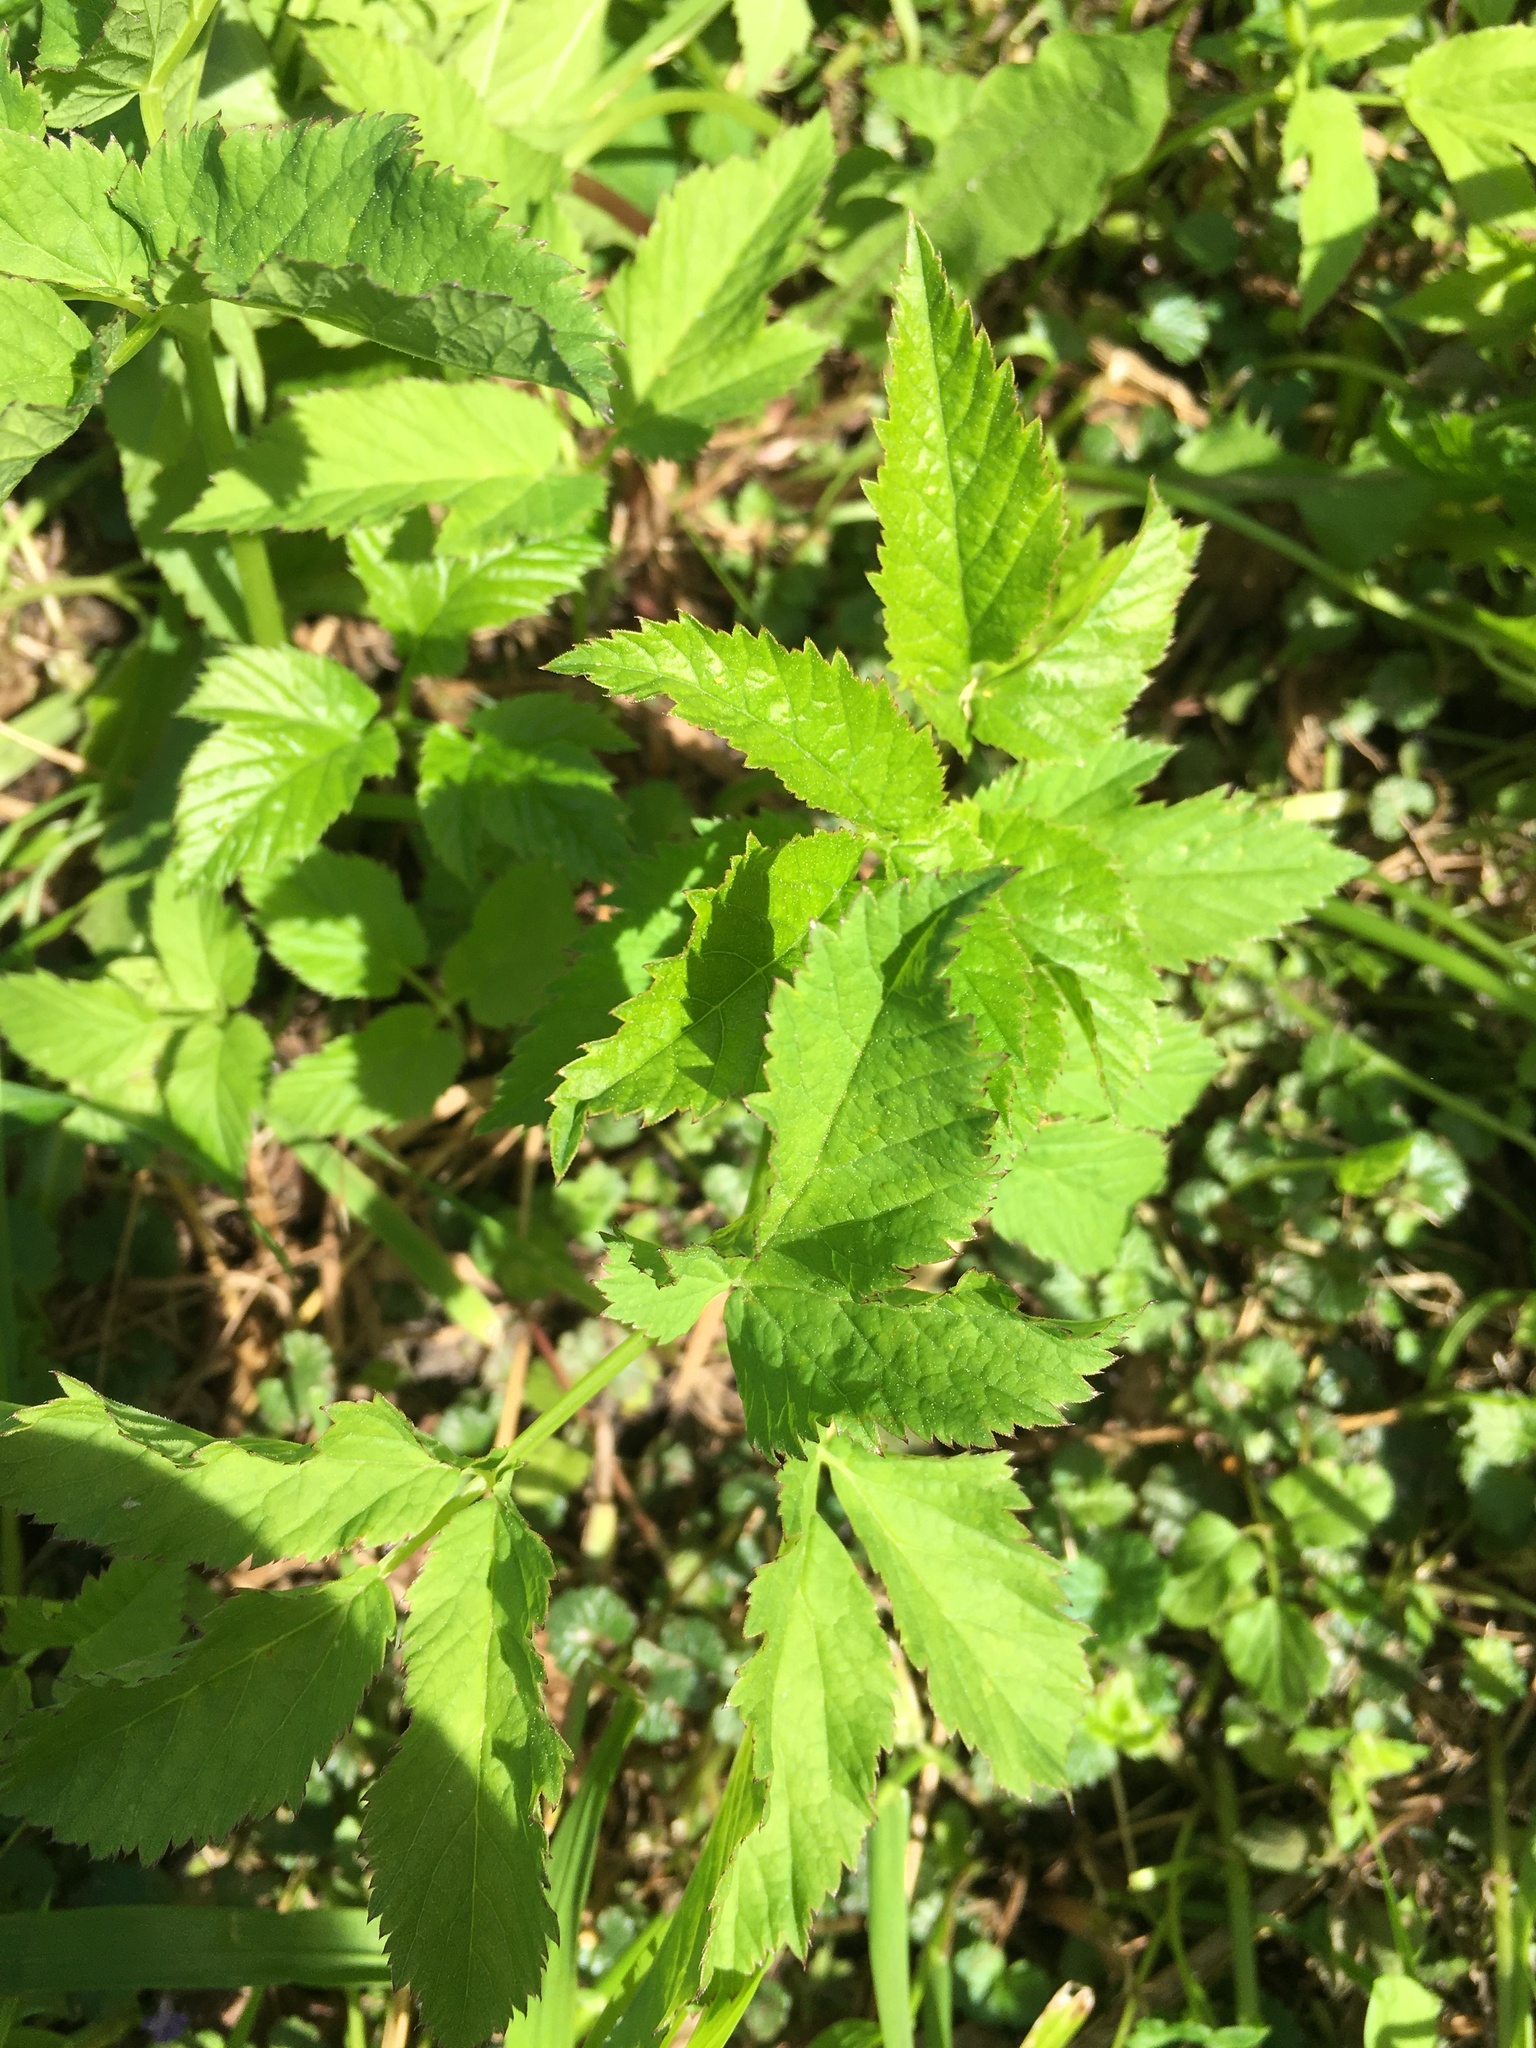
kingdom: Plantae
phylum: Tracheophyta
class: Magnoliopsida
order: Rosales
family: Rosaceae
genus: Rubus
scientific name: Rubus saxatilis
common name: Stone bramble
